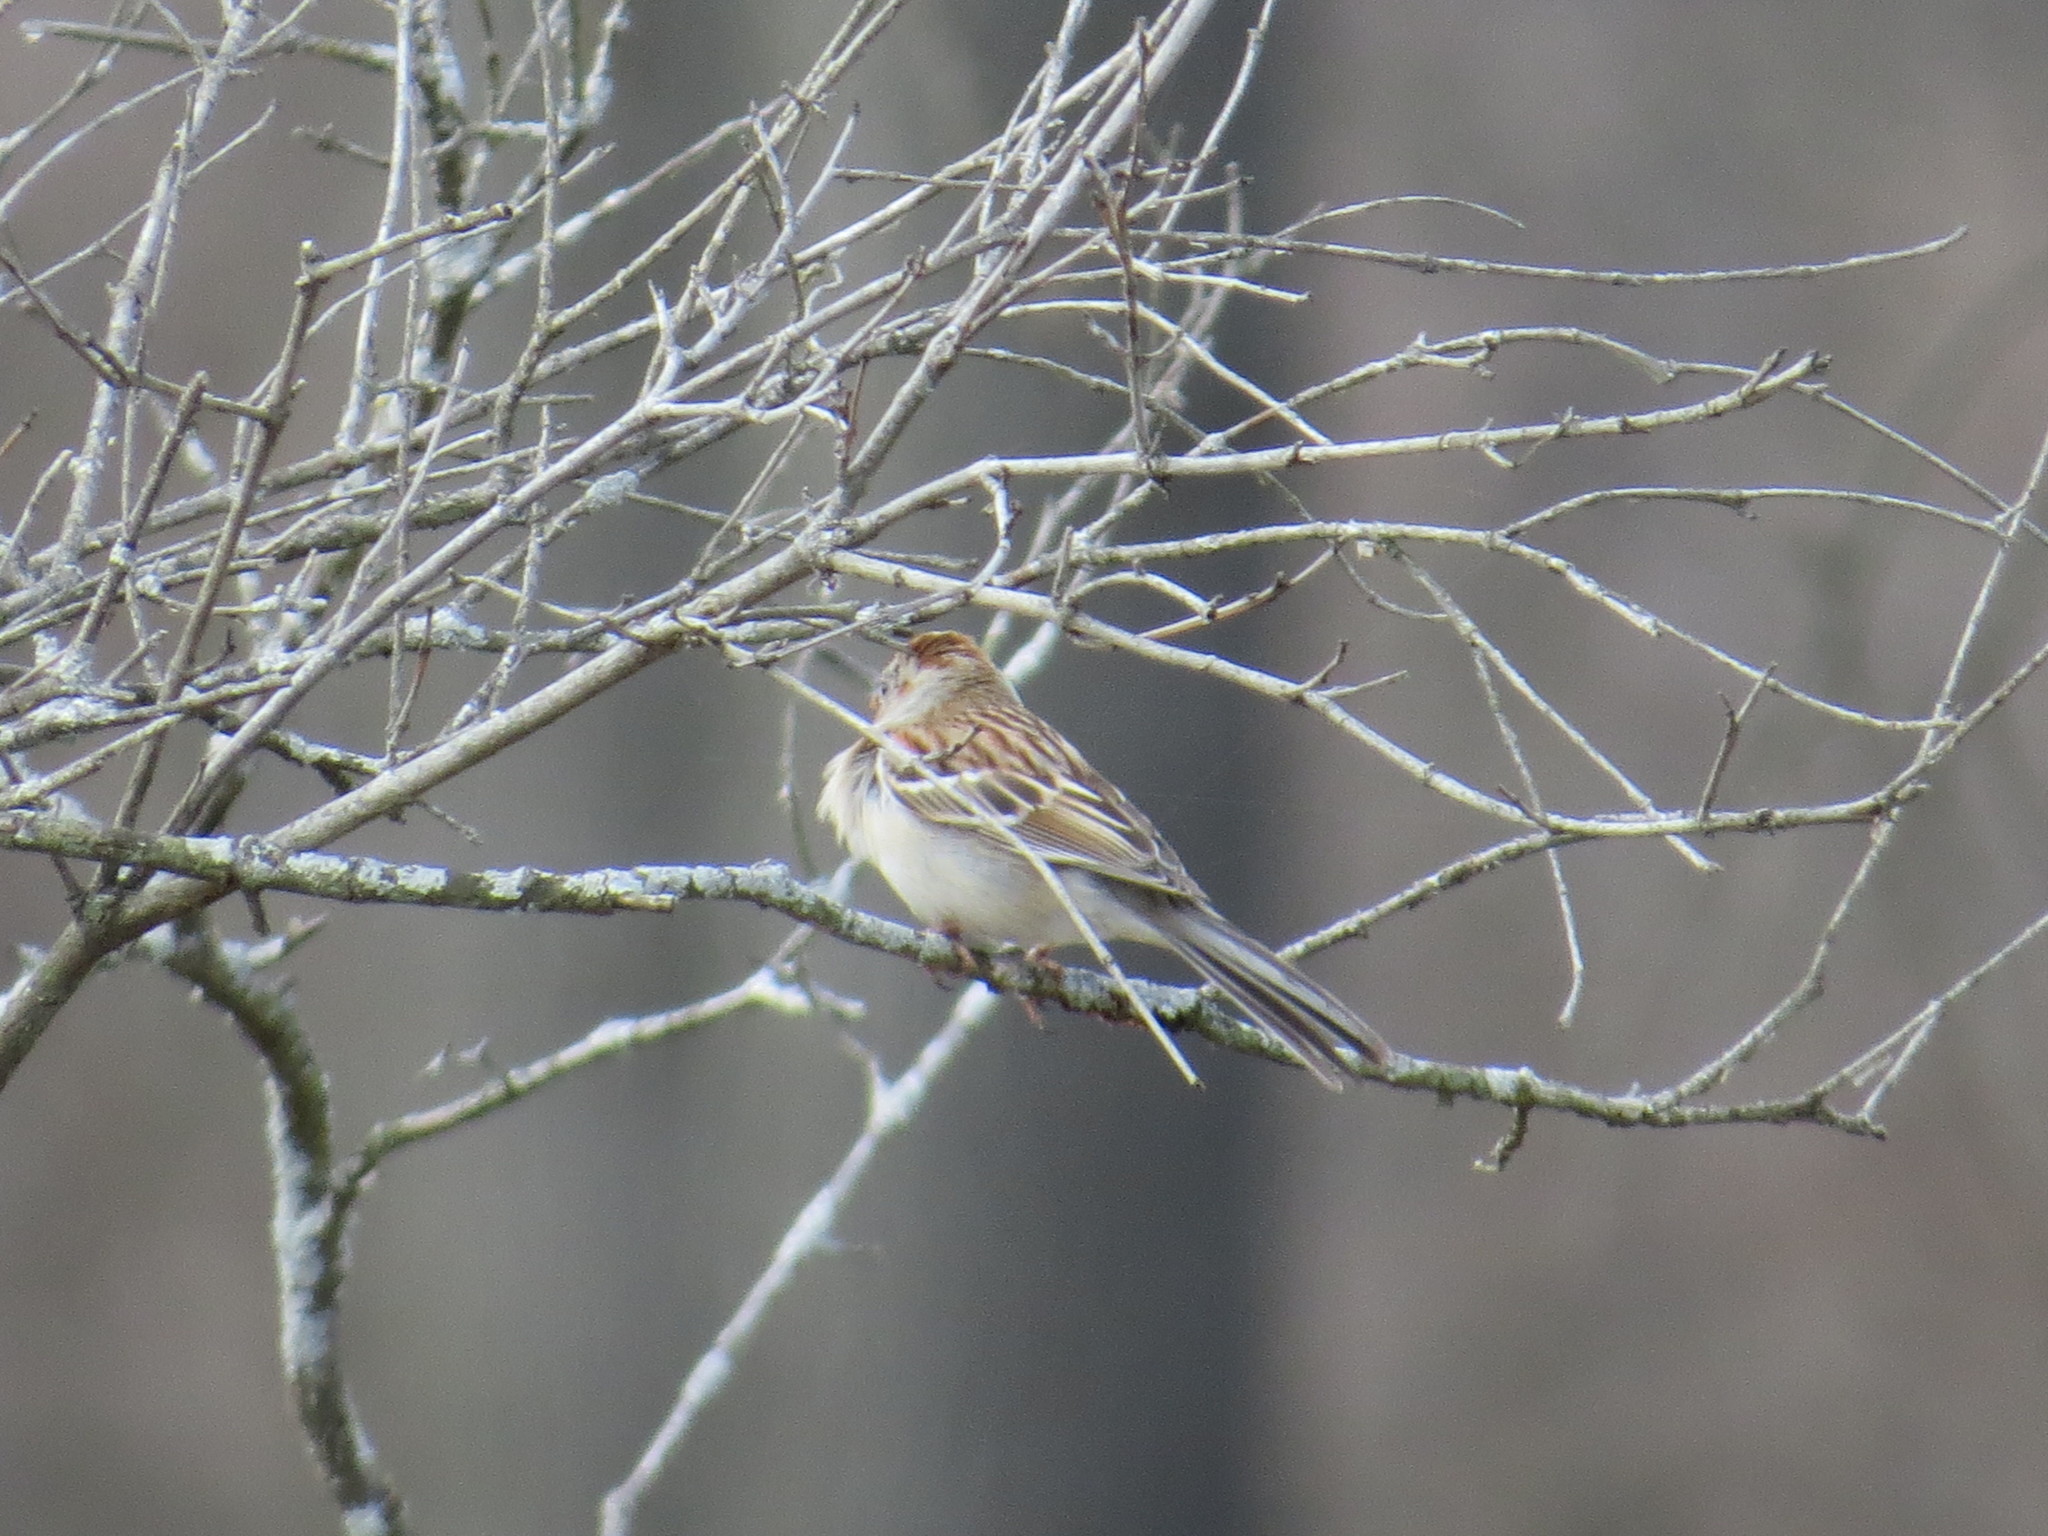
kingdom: Animalia
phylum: Chordata
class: Aves
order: Passeriformes
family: Passerellidae
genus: Spizella
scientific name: Spizella pusilla
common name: Field sparrow
